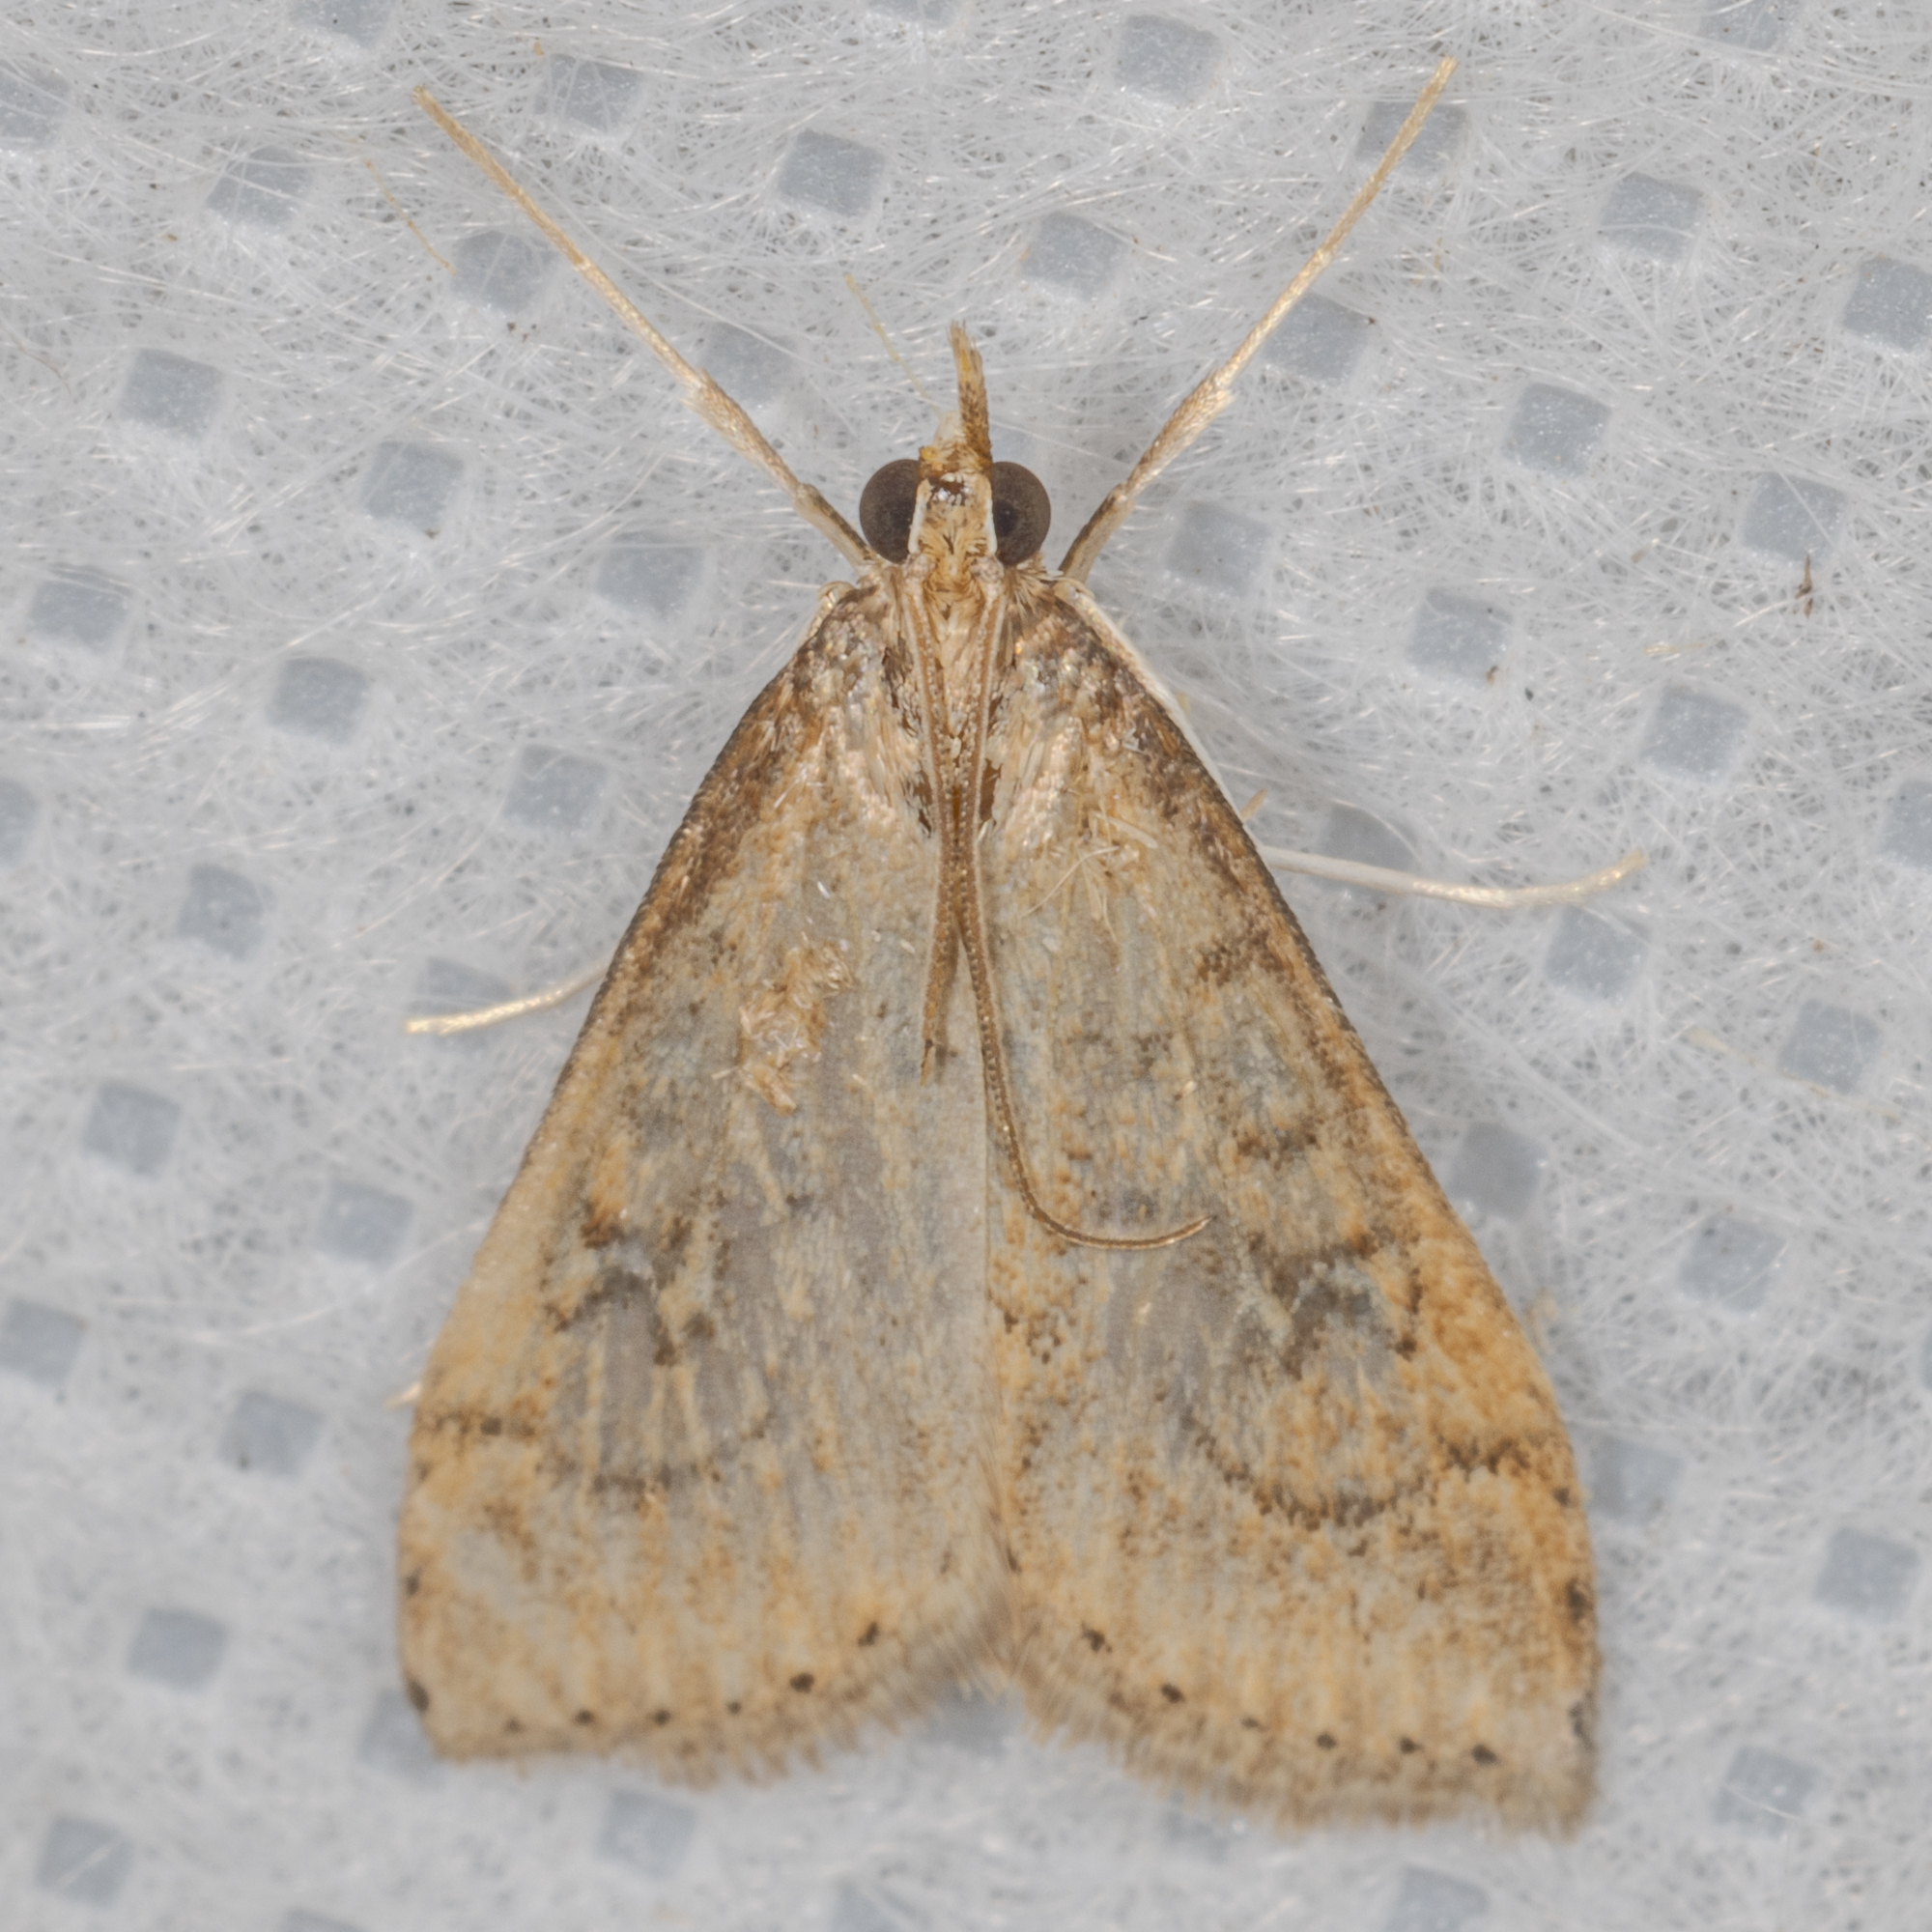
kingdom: Animalia
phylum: Arthropoda
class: Insecta
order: Lepidoptera
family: Crambidae
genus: Udea
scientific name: Udea rubigalis
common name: Celery leaftier moth
